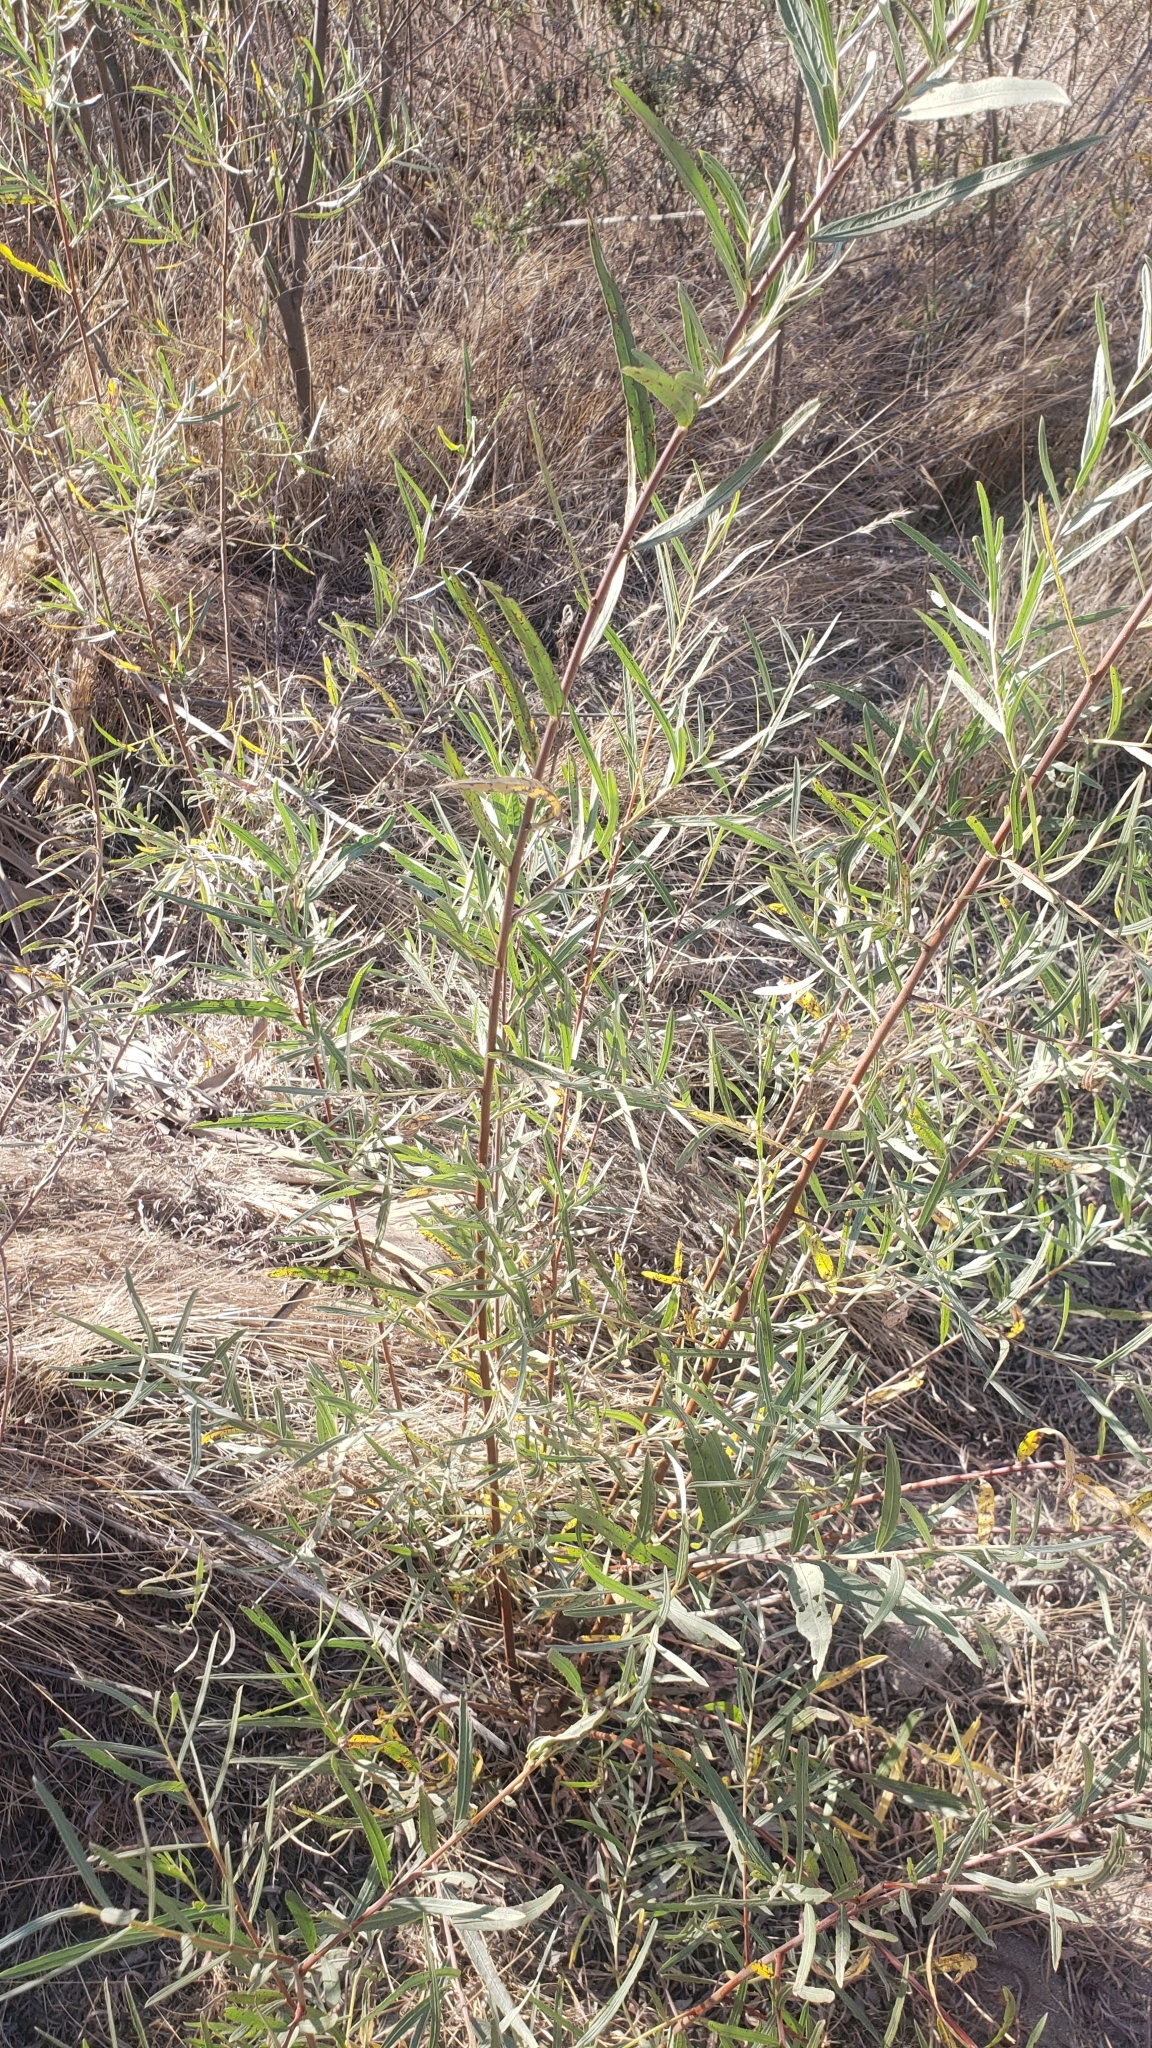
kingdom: Plantae
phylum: Tracheophyta
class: Magnoliopsida
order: Malpighiales
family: Salicaceae
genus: Salix
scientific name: Salix exigua
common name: Coyote willow
